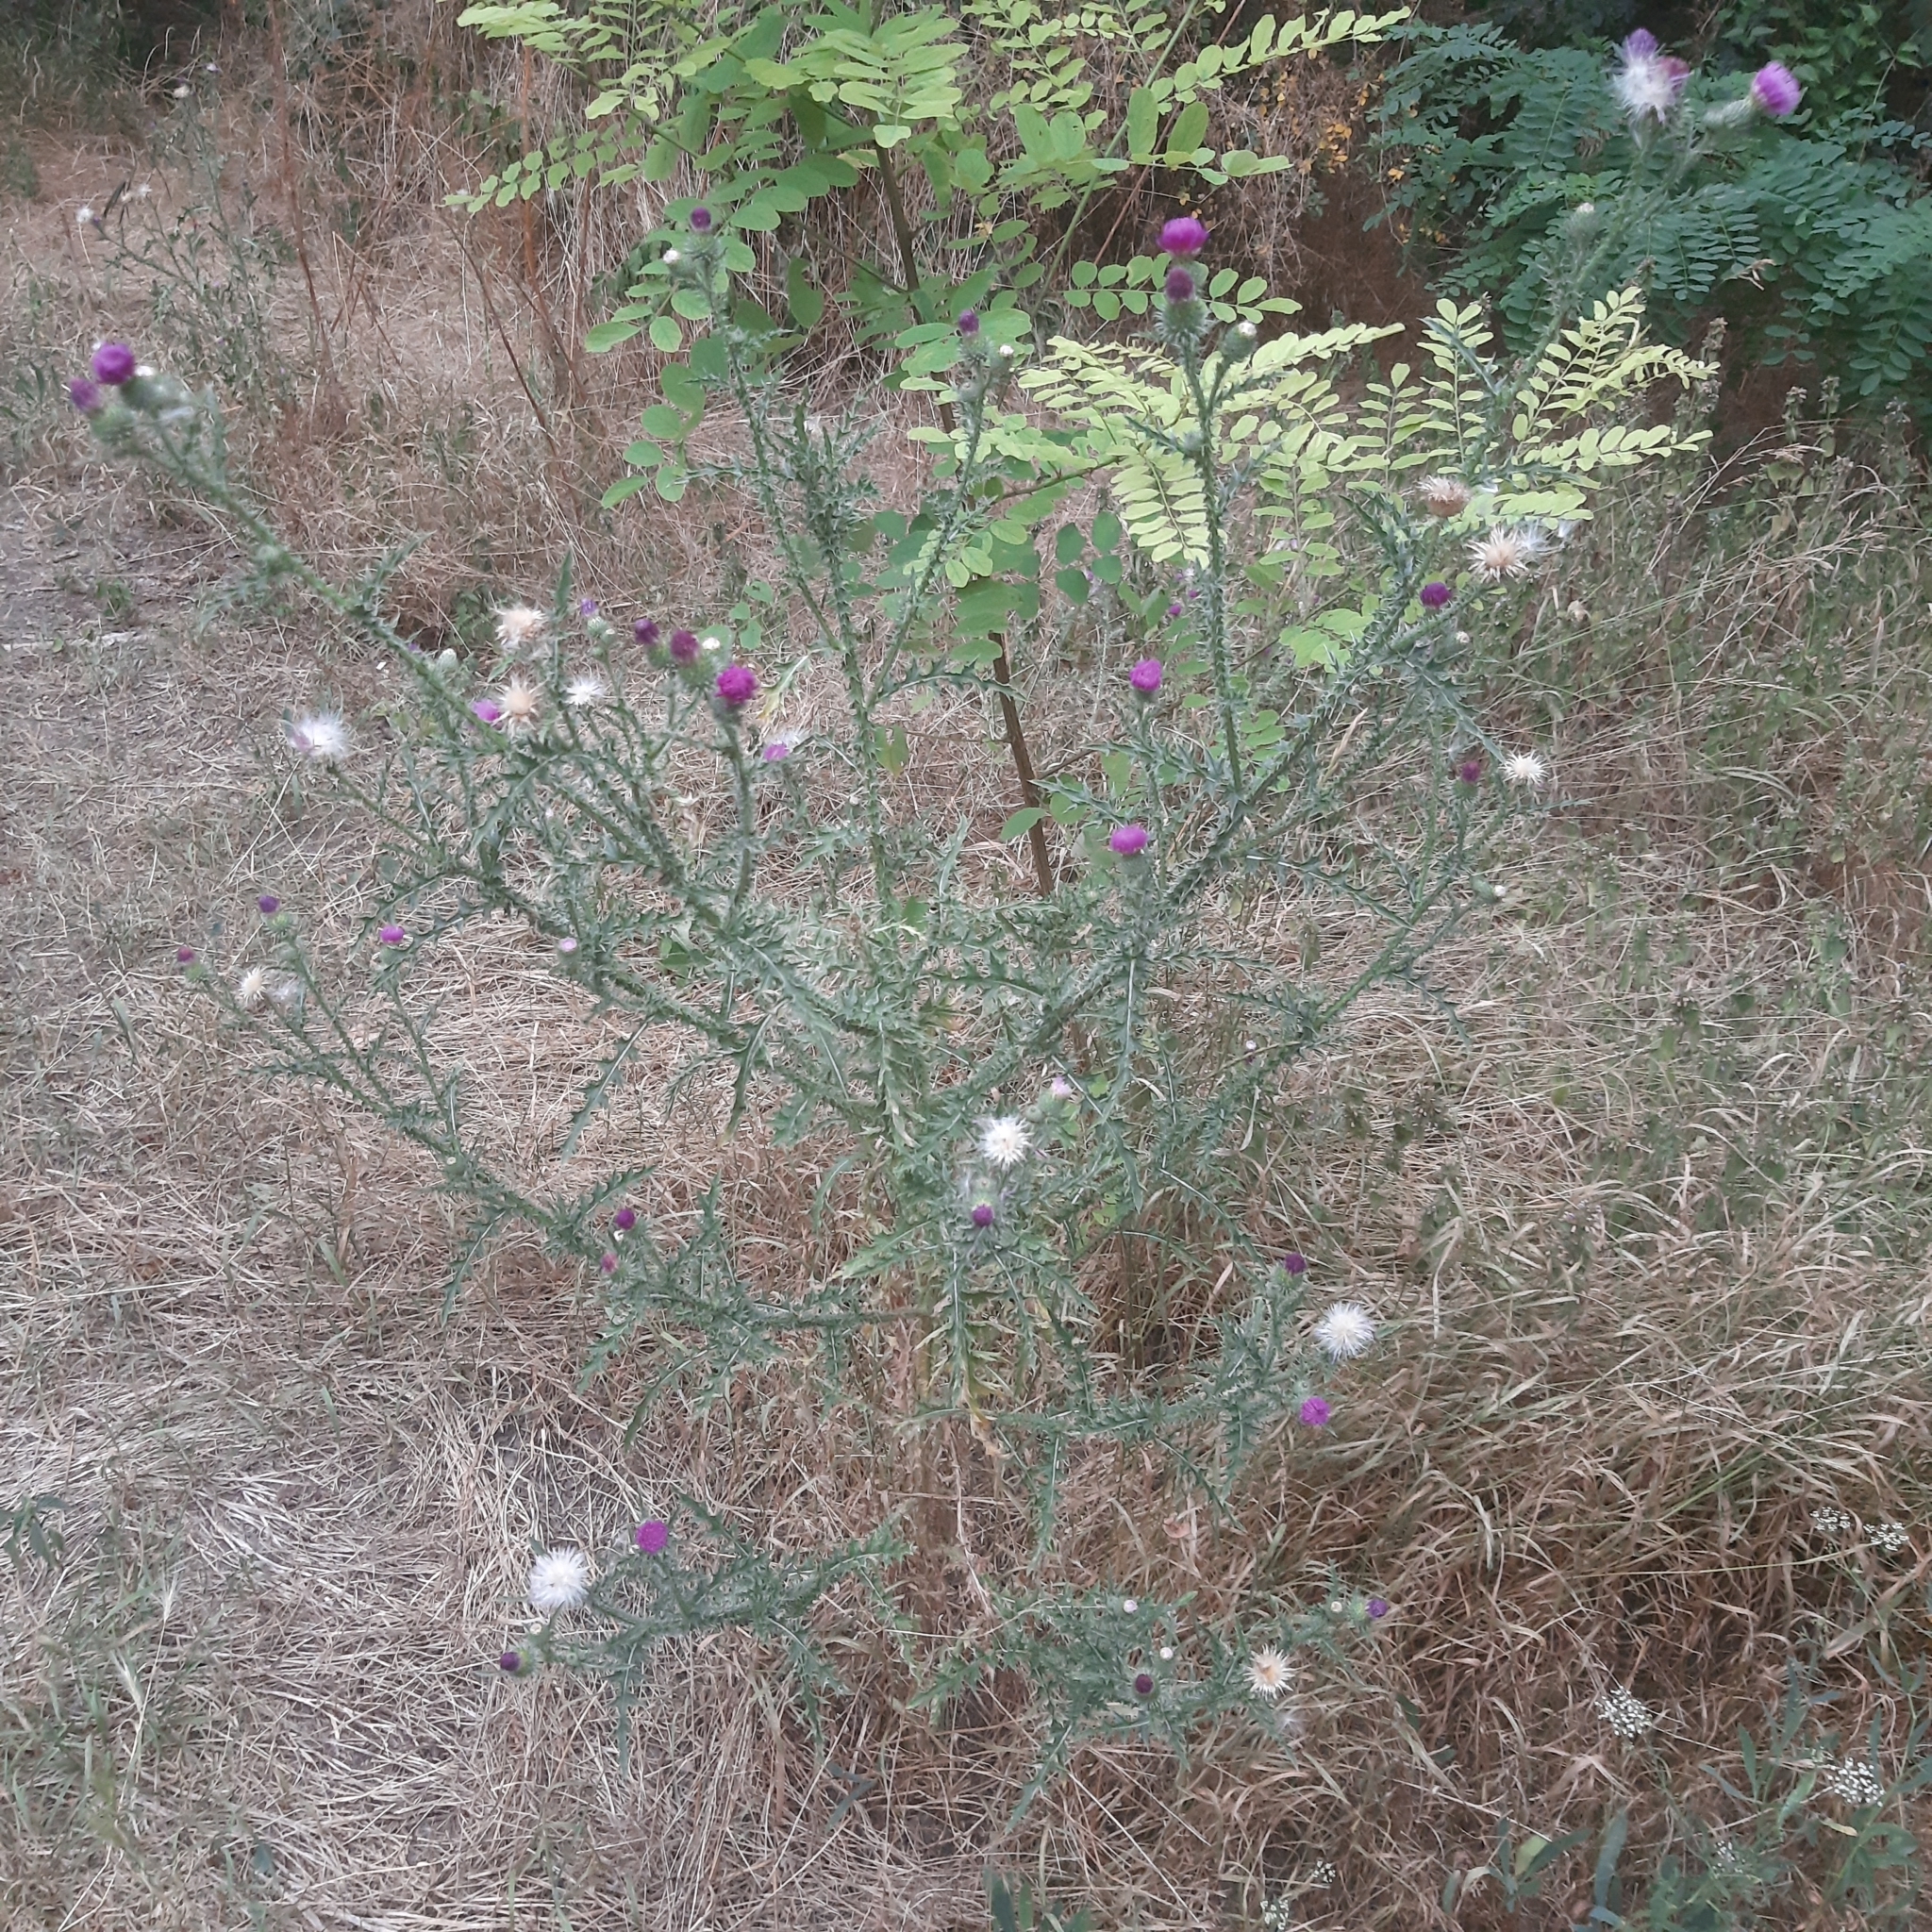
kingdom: Plantae
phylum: Tracheophyta
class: Magnoliopsida
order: Asterales
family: Asteraceae
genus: Carduus
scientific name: Carduus acanthoides
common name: Plumeless thistle
